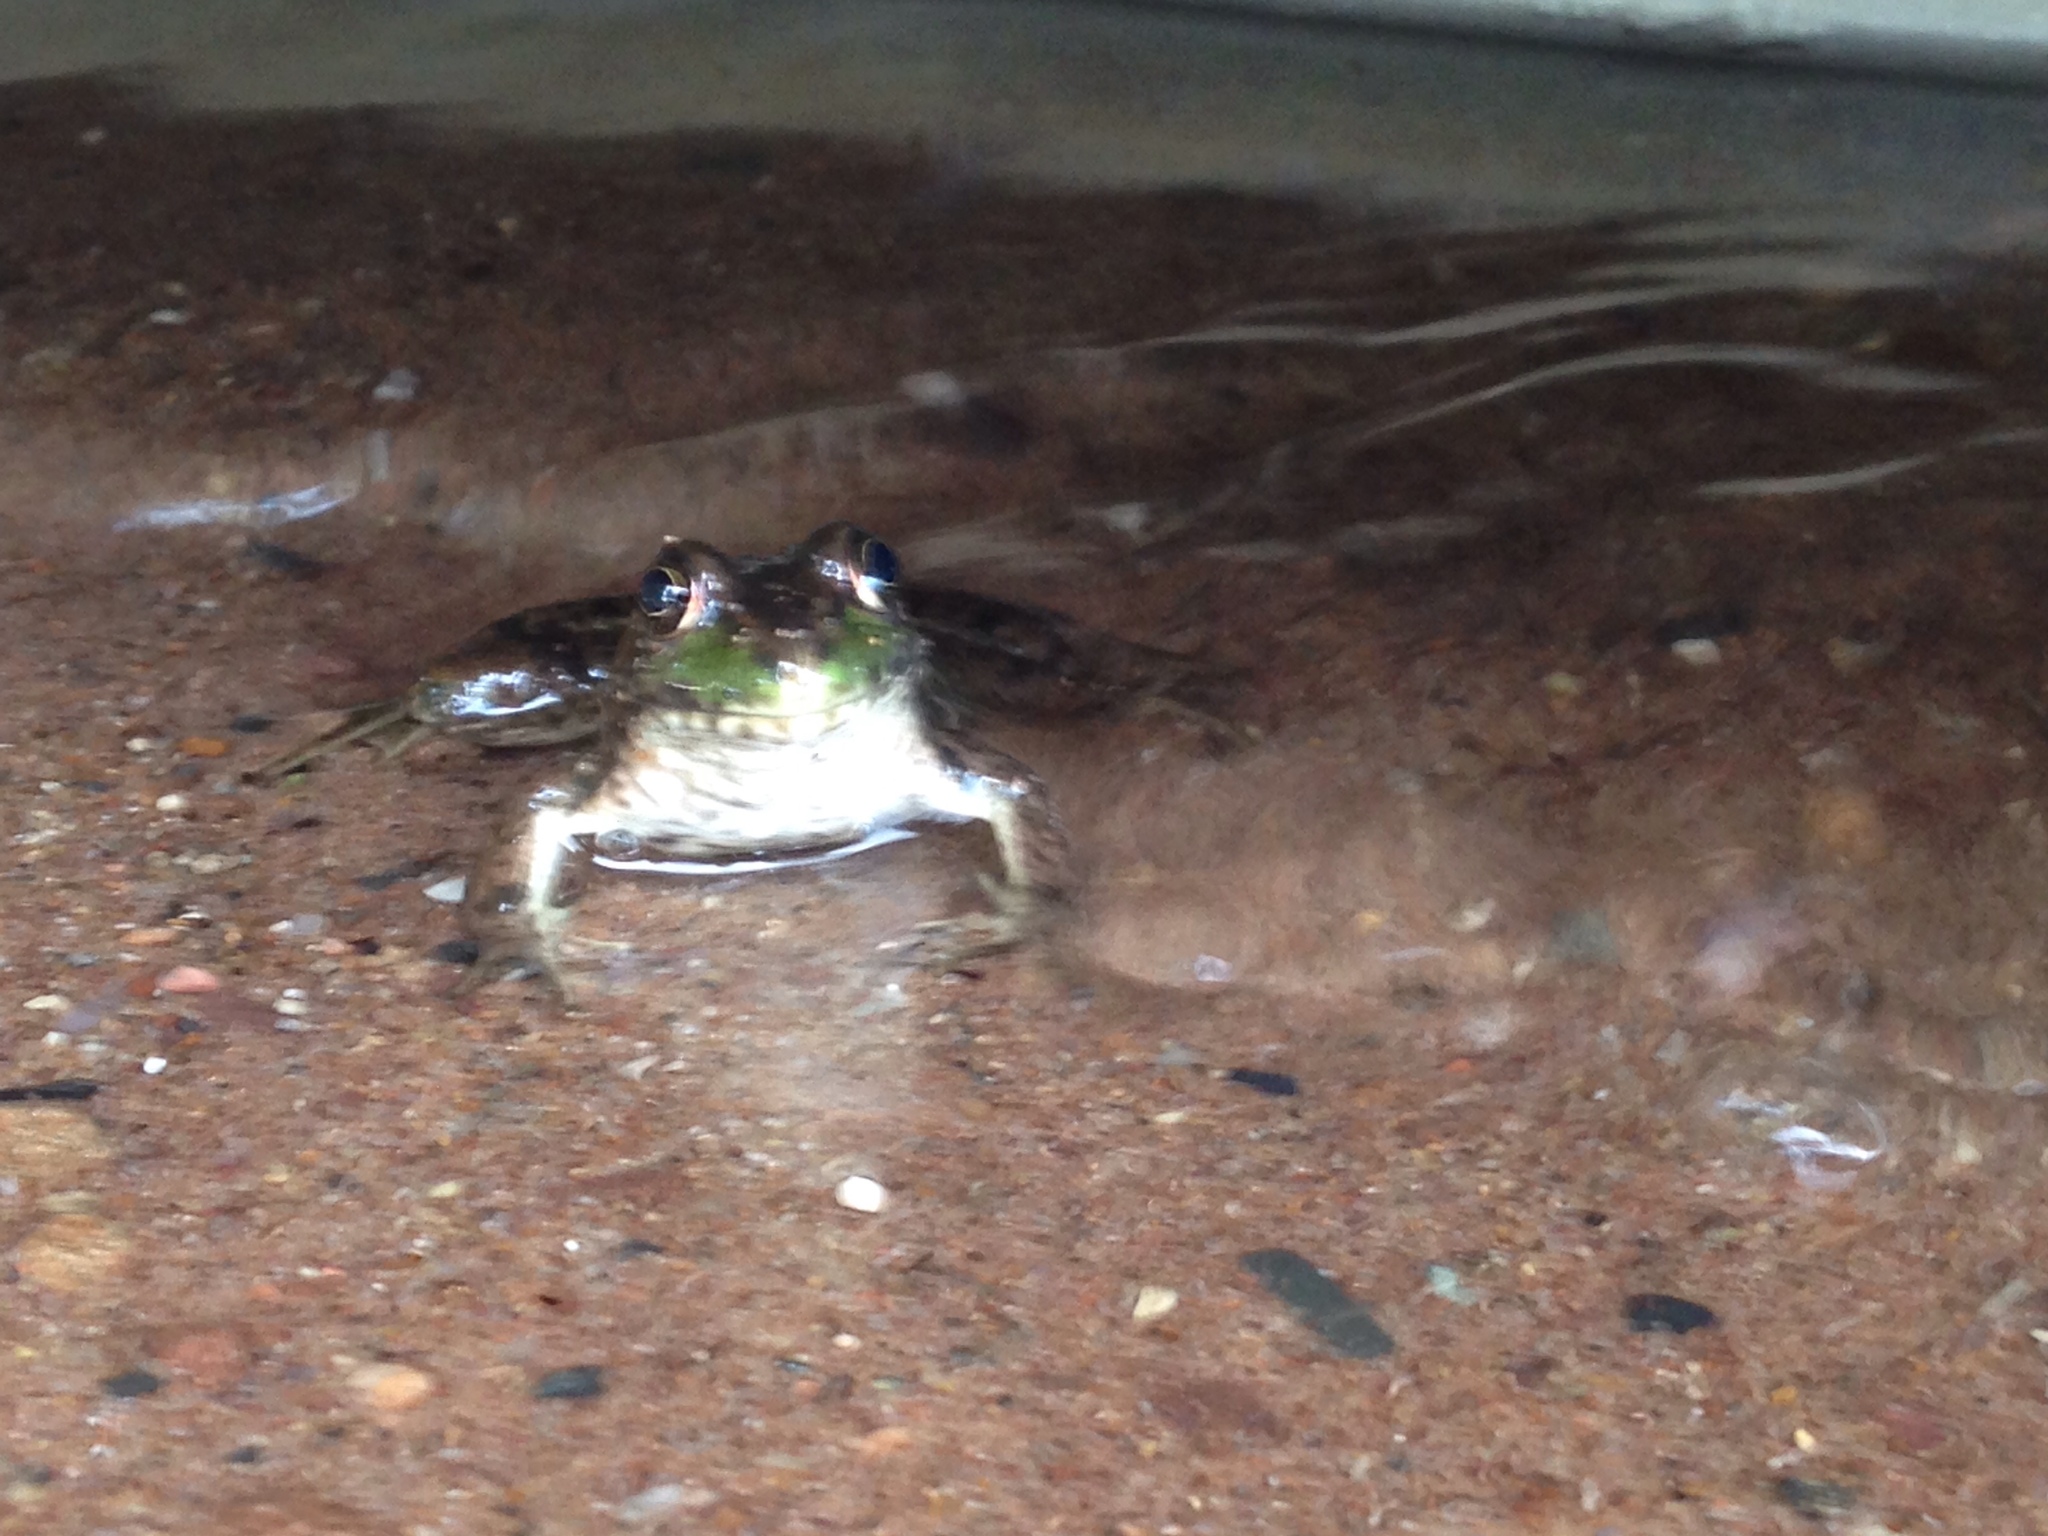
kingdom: Animalia
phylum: Chordata
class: Amphibia
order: Anura
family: Ranidae
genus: Lithobates
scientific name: Lithobates clamitans
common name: Green frog
